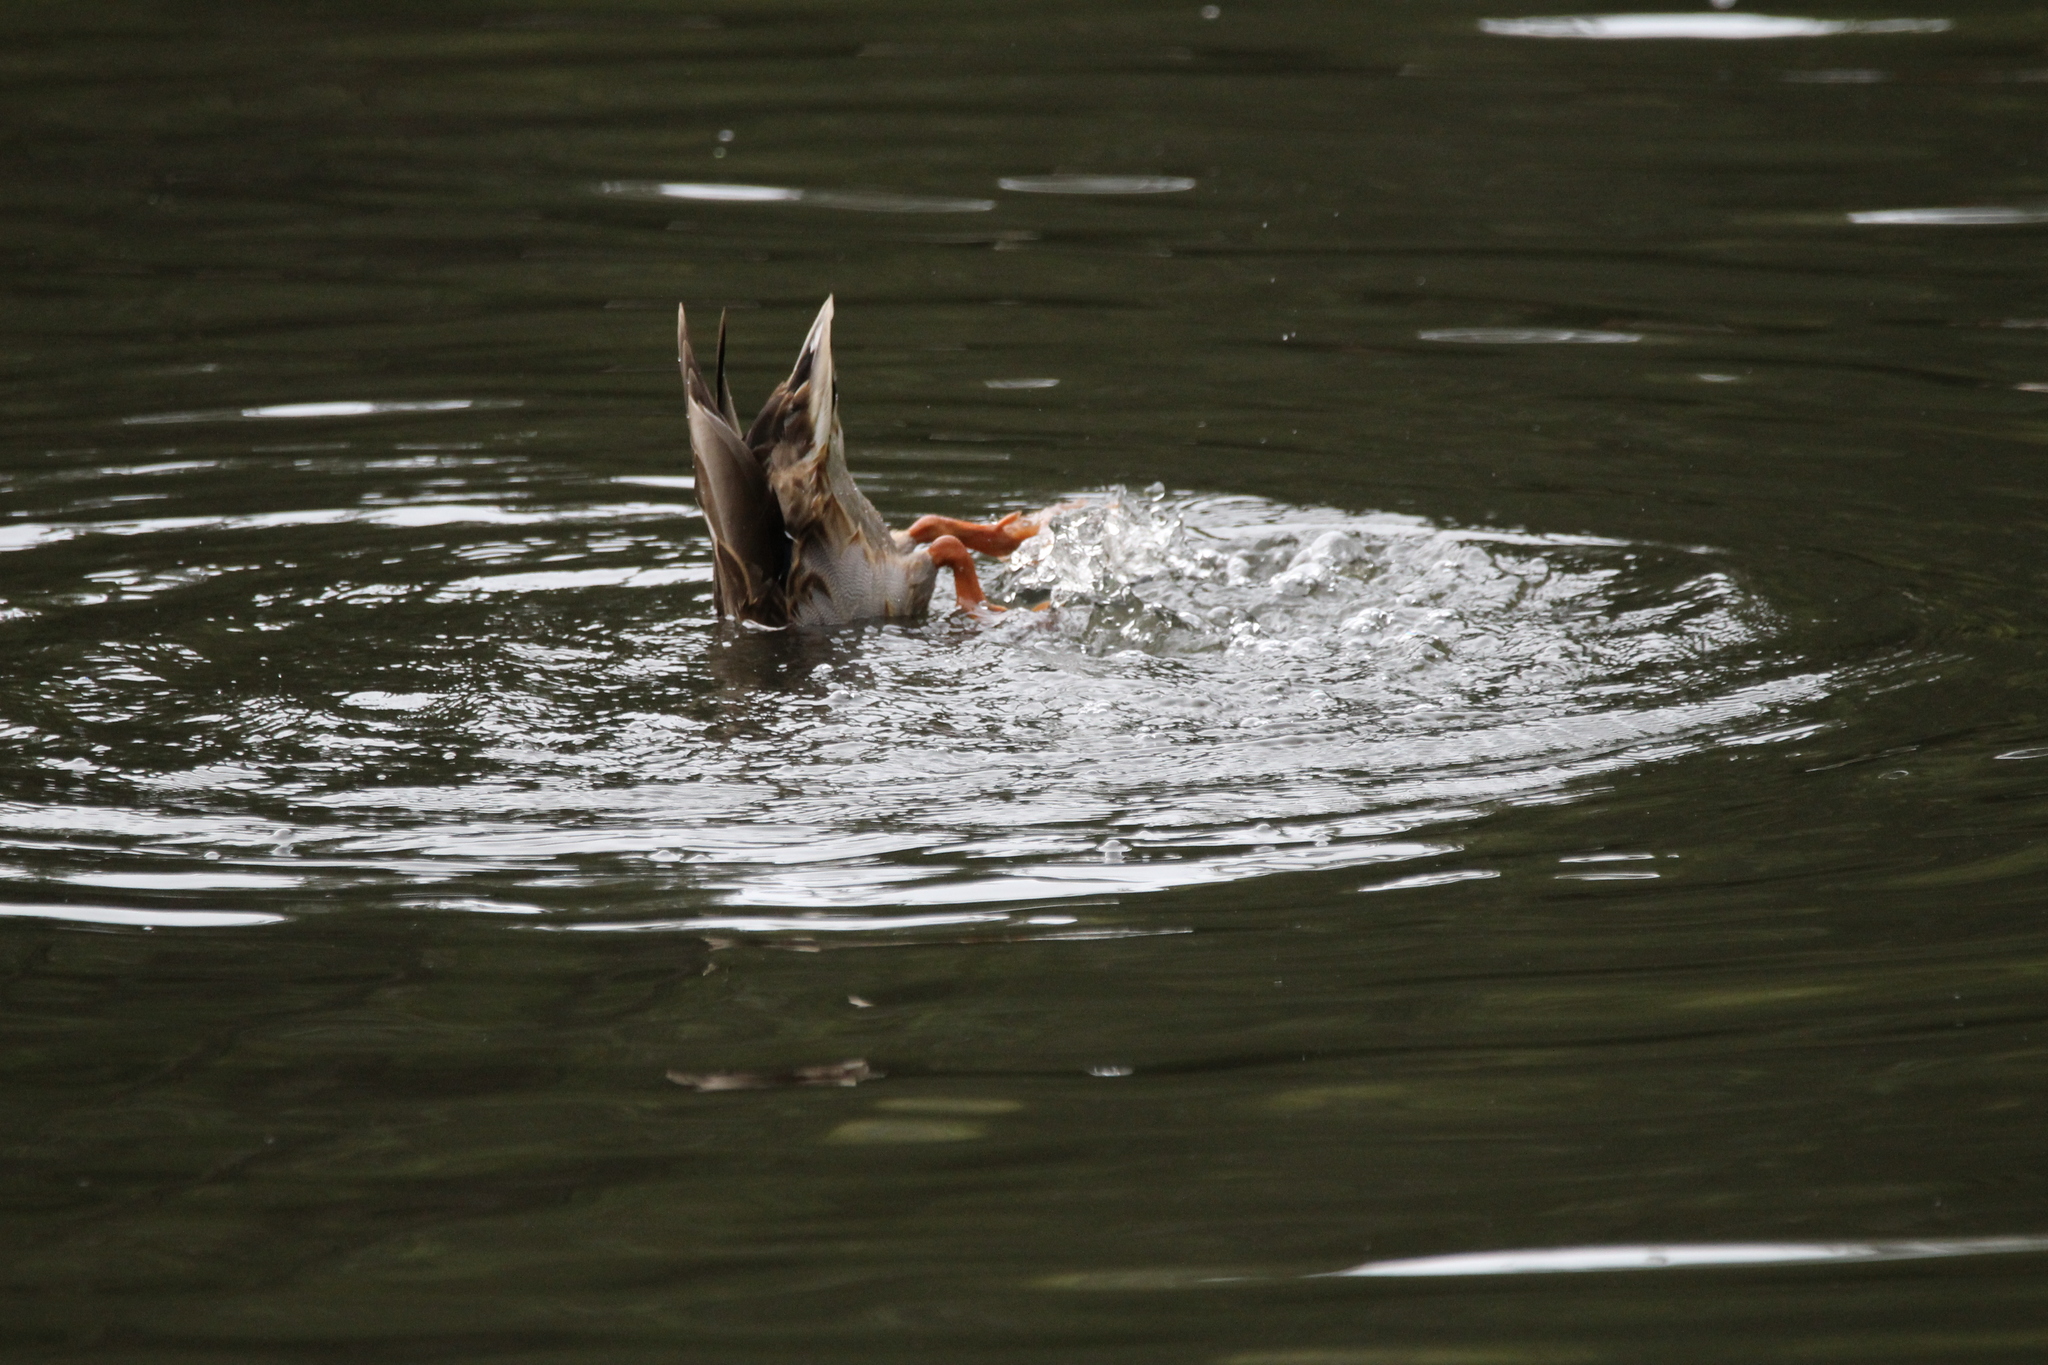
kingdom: Animalia
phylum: Chordata
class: Aves
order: Anseriformes
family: Anatidae
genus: Anas
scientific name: Anas platyrhynchos
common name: Mallard
